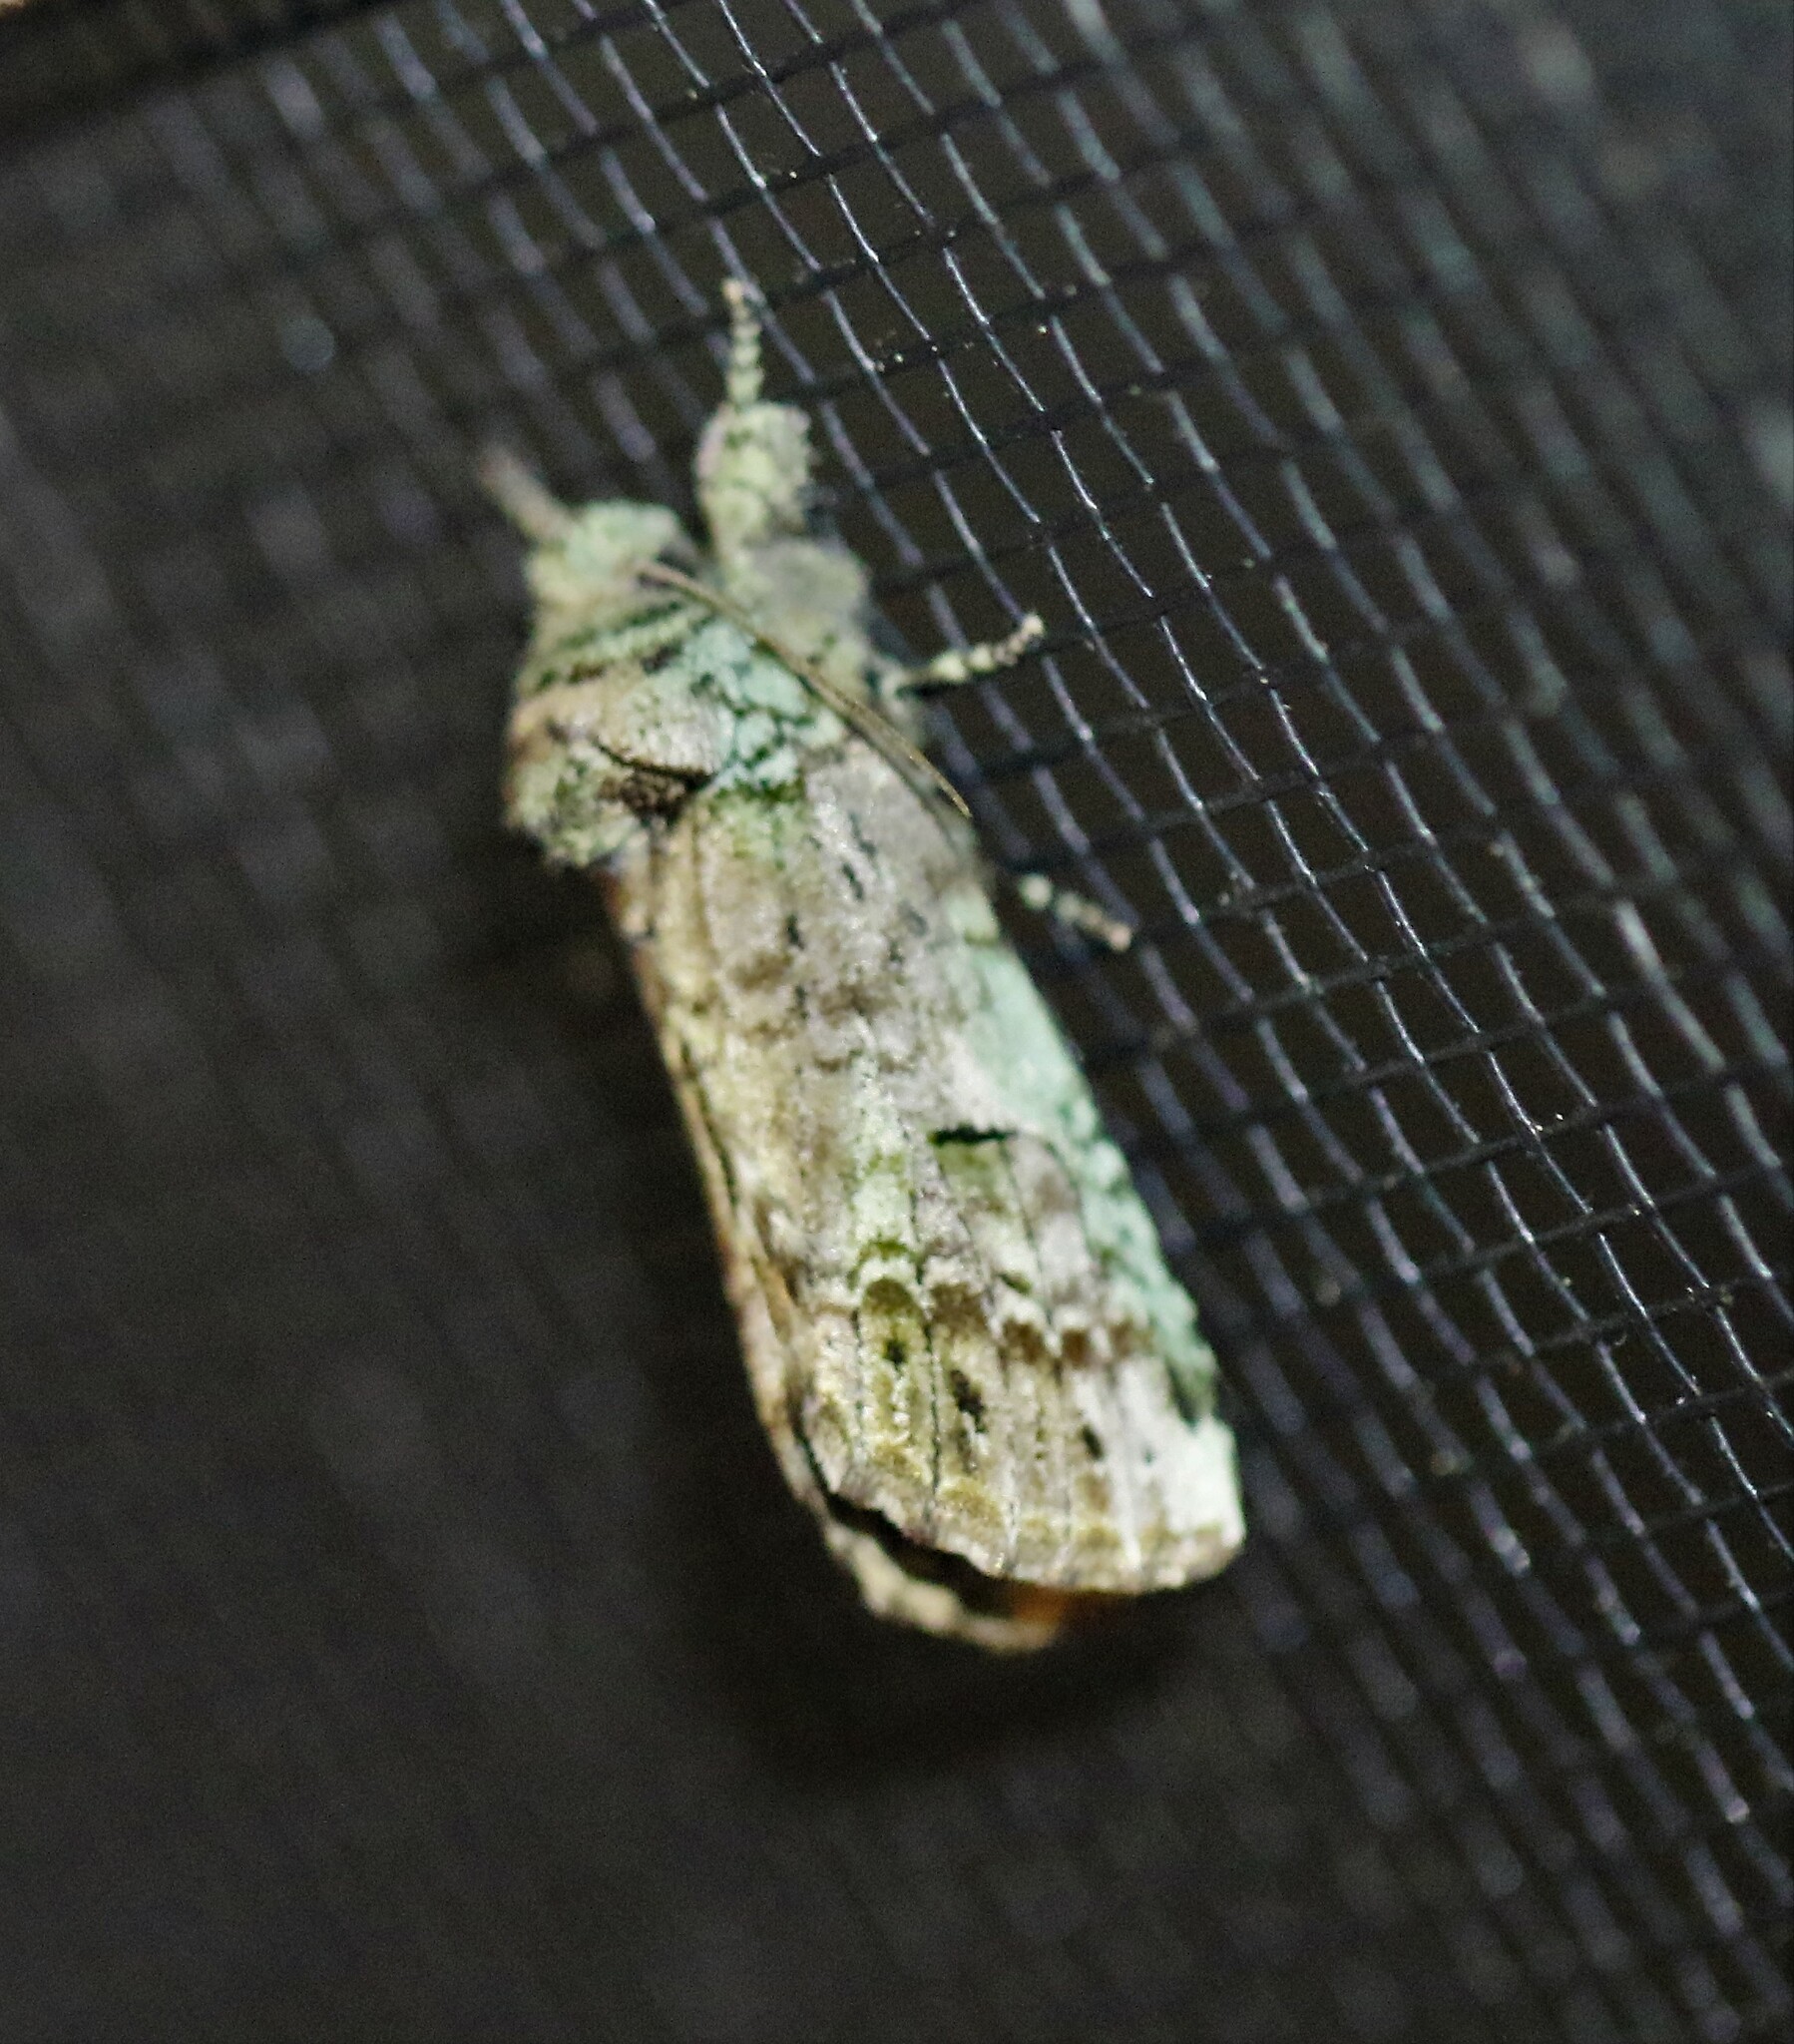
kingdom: Animalia
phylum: Arthropoda
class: Insecta
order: Lepidoptera
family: Notodontidae
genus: Schizura
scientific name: Schizura
